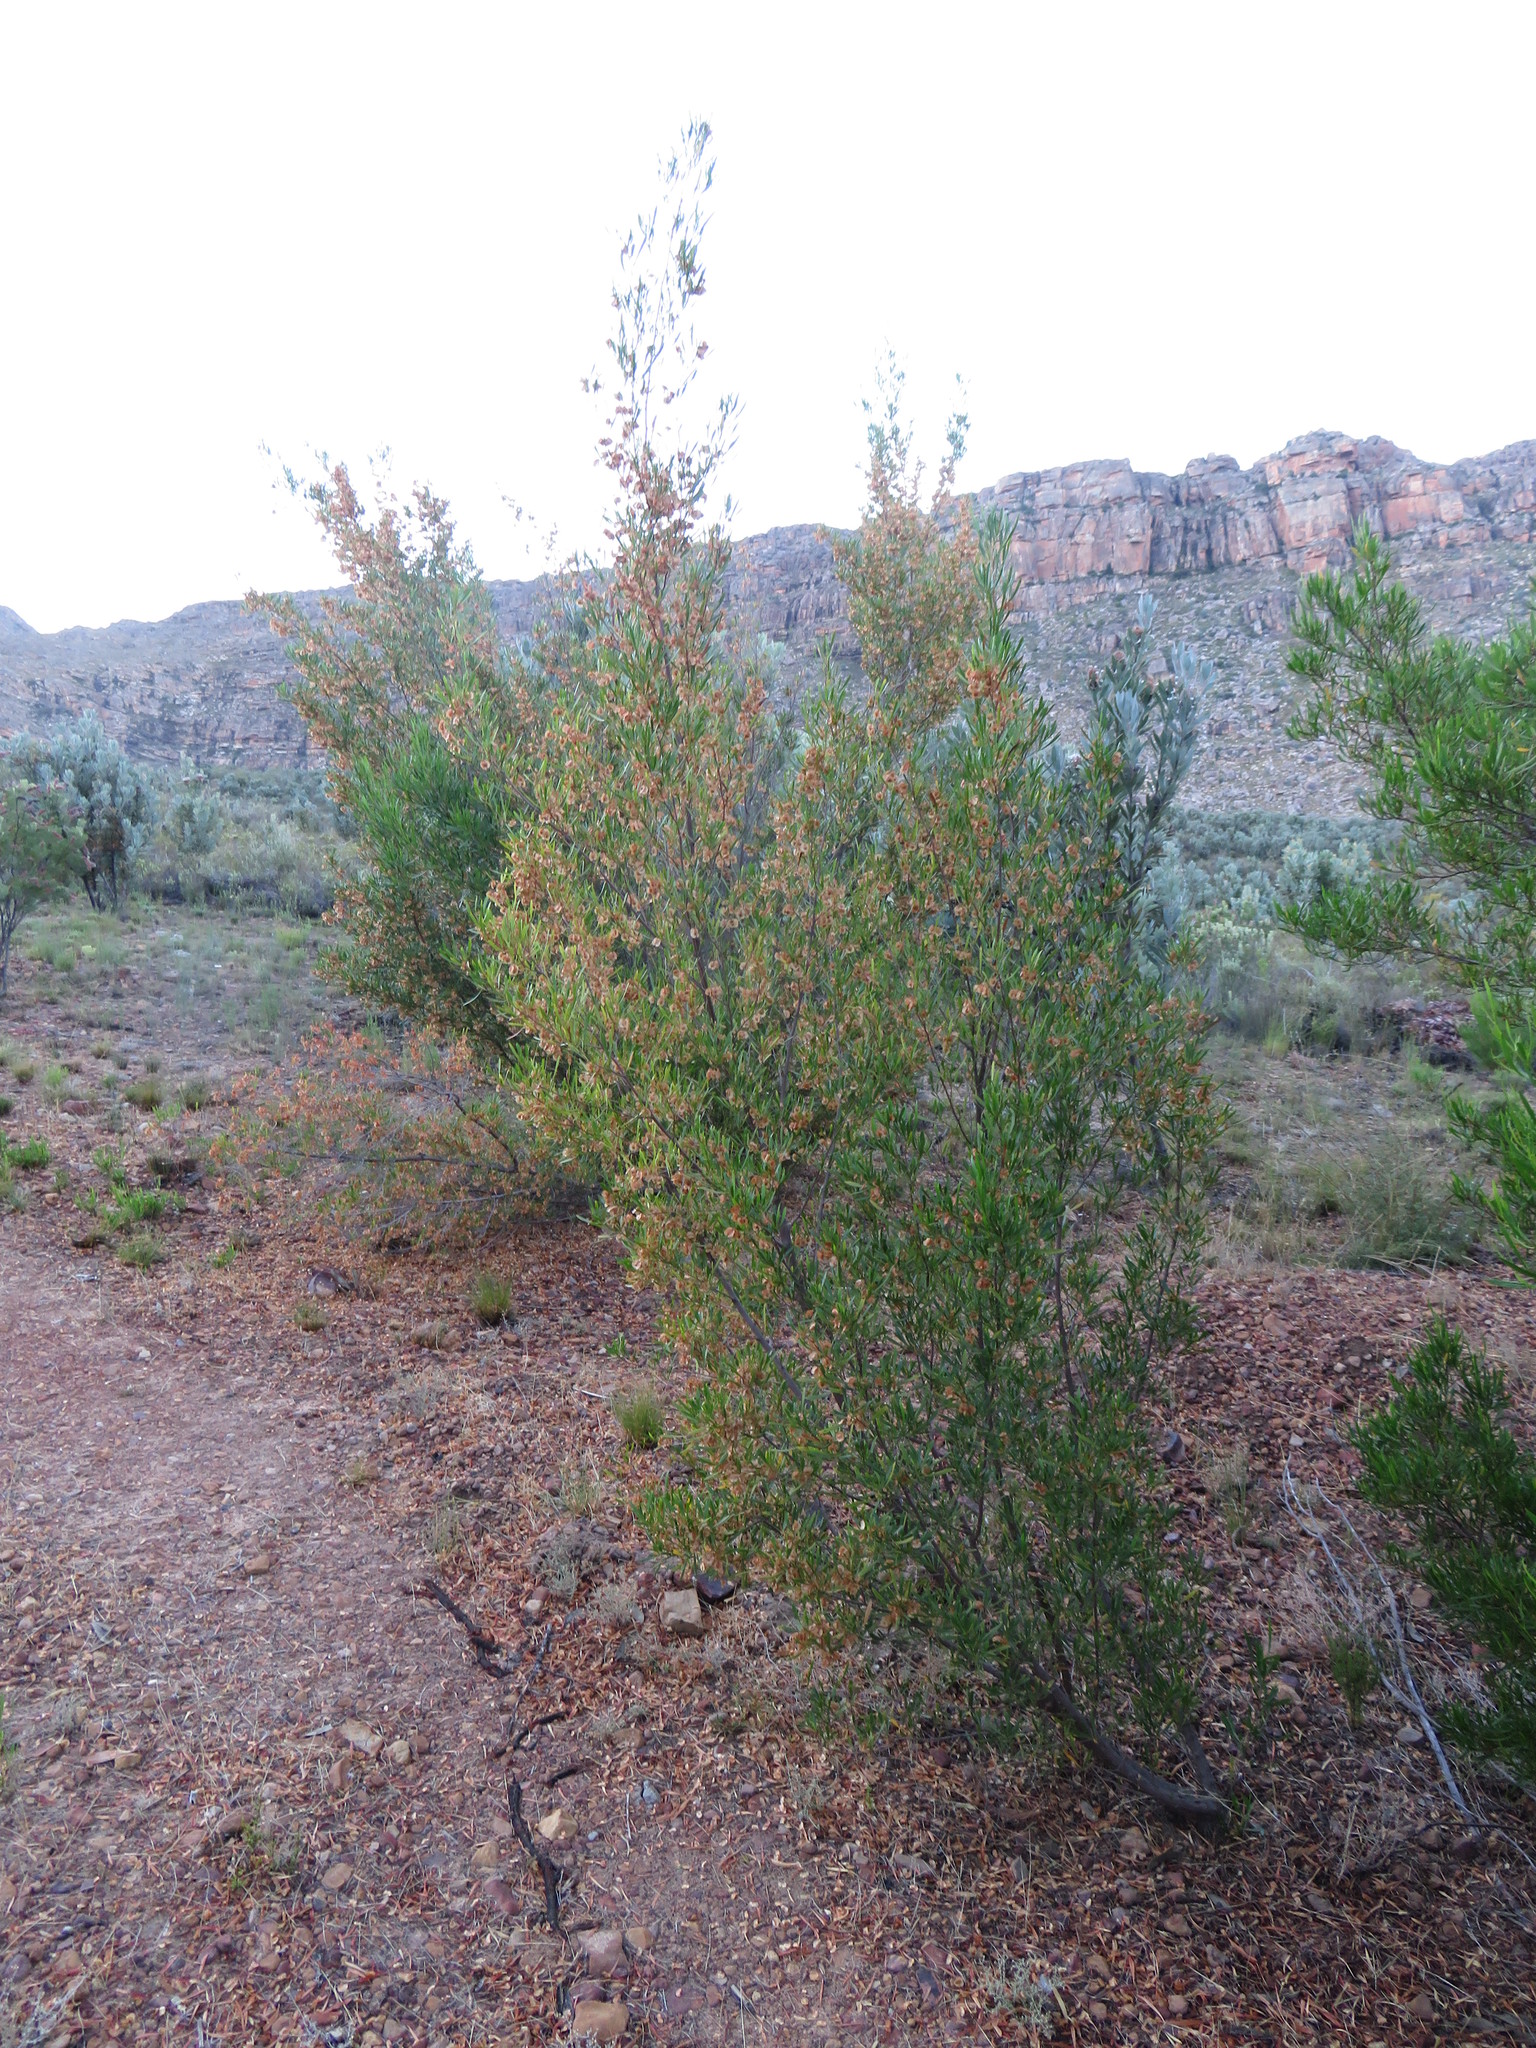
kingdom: Plantae
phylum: Tracheophyta
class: Magnoliopsida
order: Sapindales
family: Sapindaceae
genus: Dodonaea
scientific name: Dodonaea viscosa
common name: Hopbush
